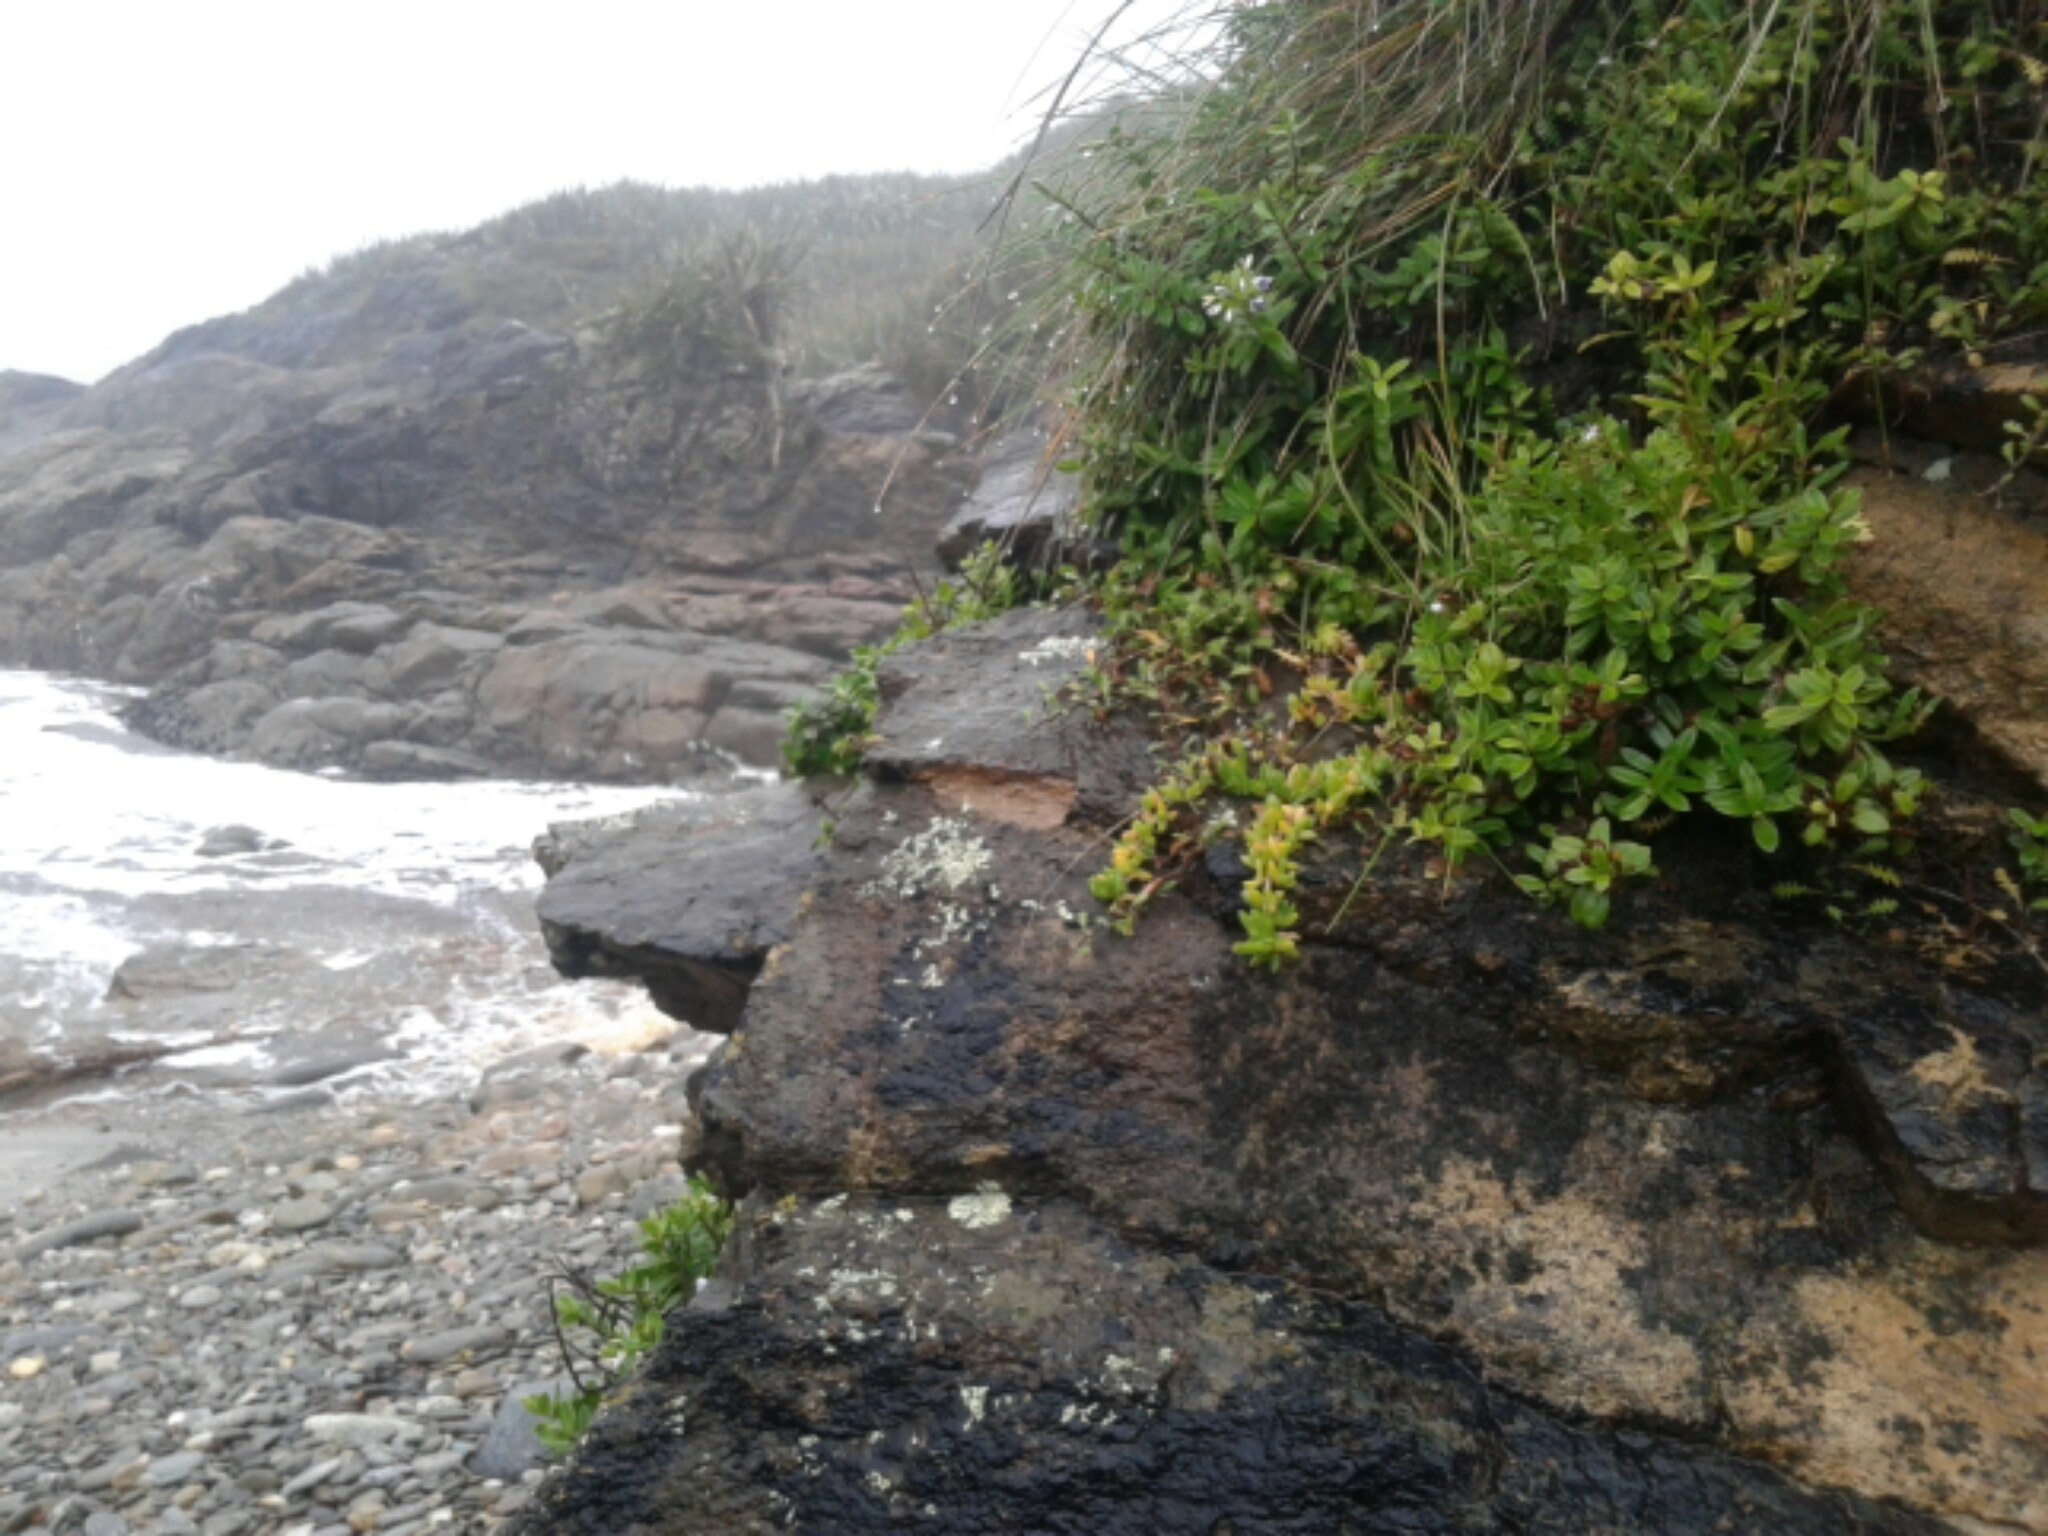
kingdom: Plantae
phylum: Tracheophyta
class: Magnoliopsida
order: Caryophyllales
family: Aizoaceae
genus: Disphyma
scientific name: Disphyma australe
